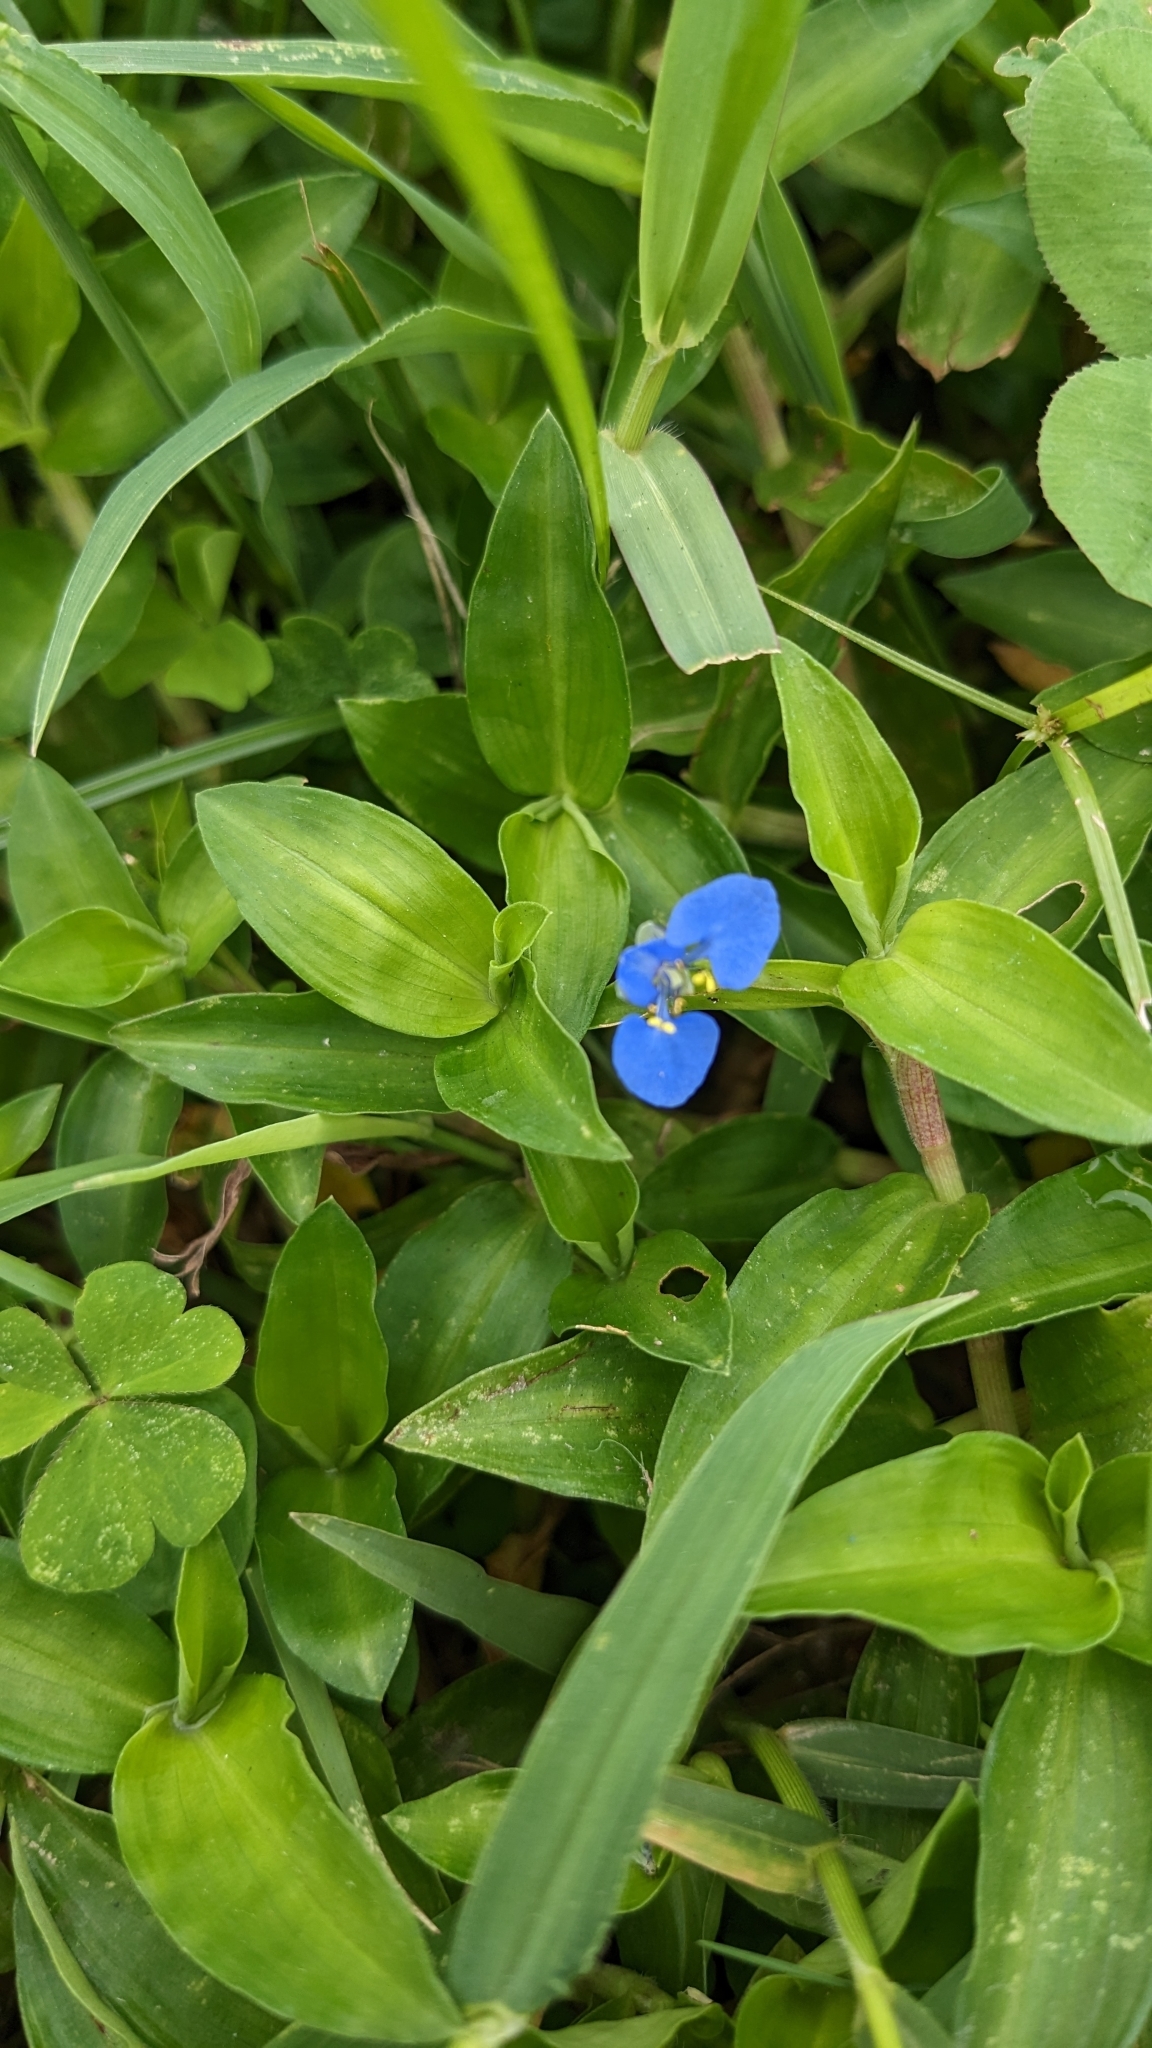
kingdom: Plantae
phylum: Tracheophyta
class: Liliopsida
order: Commelinales
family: Commelinaceae
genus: Commelina
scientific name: Commelina diffusa
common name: Climbing dayflower
